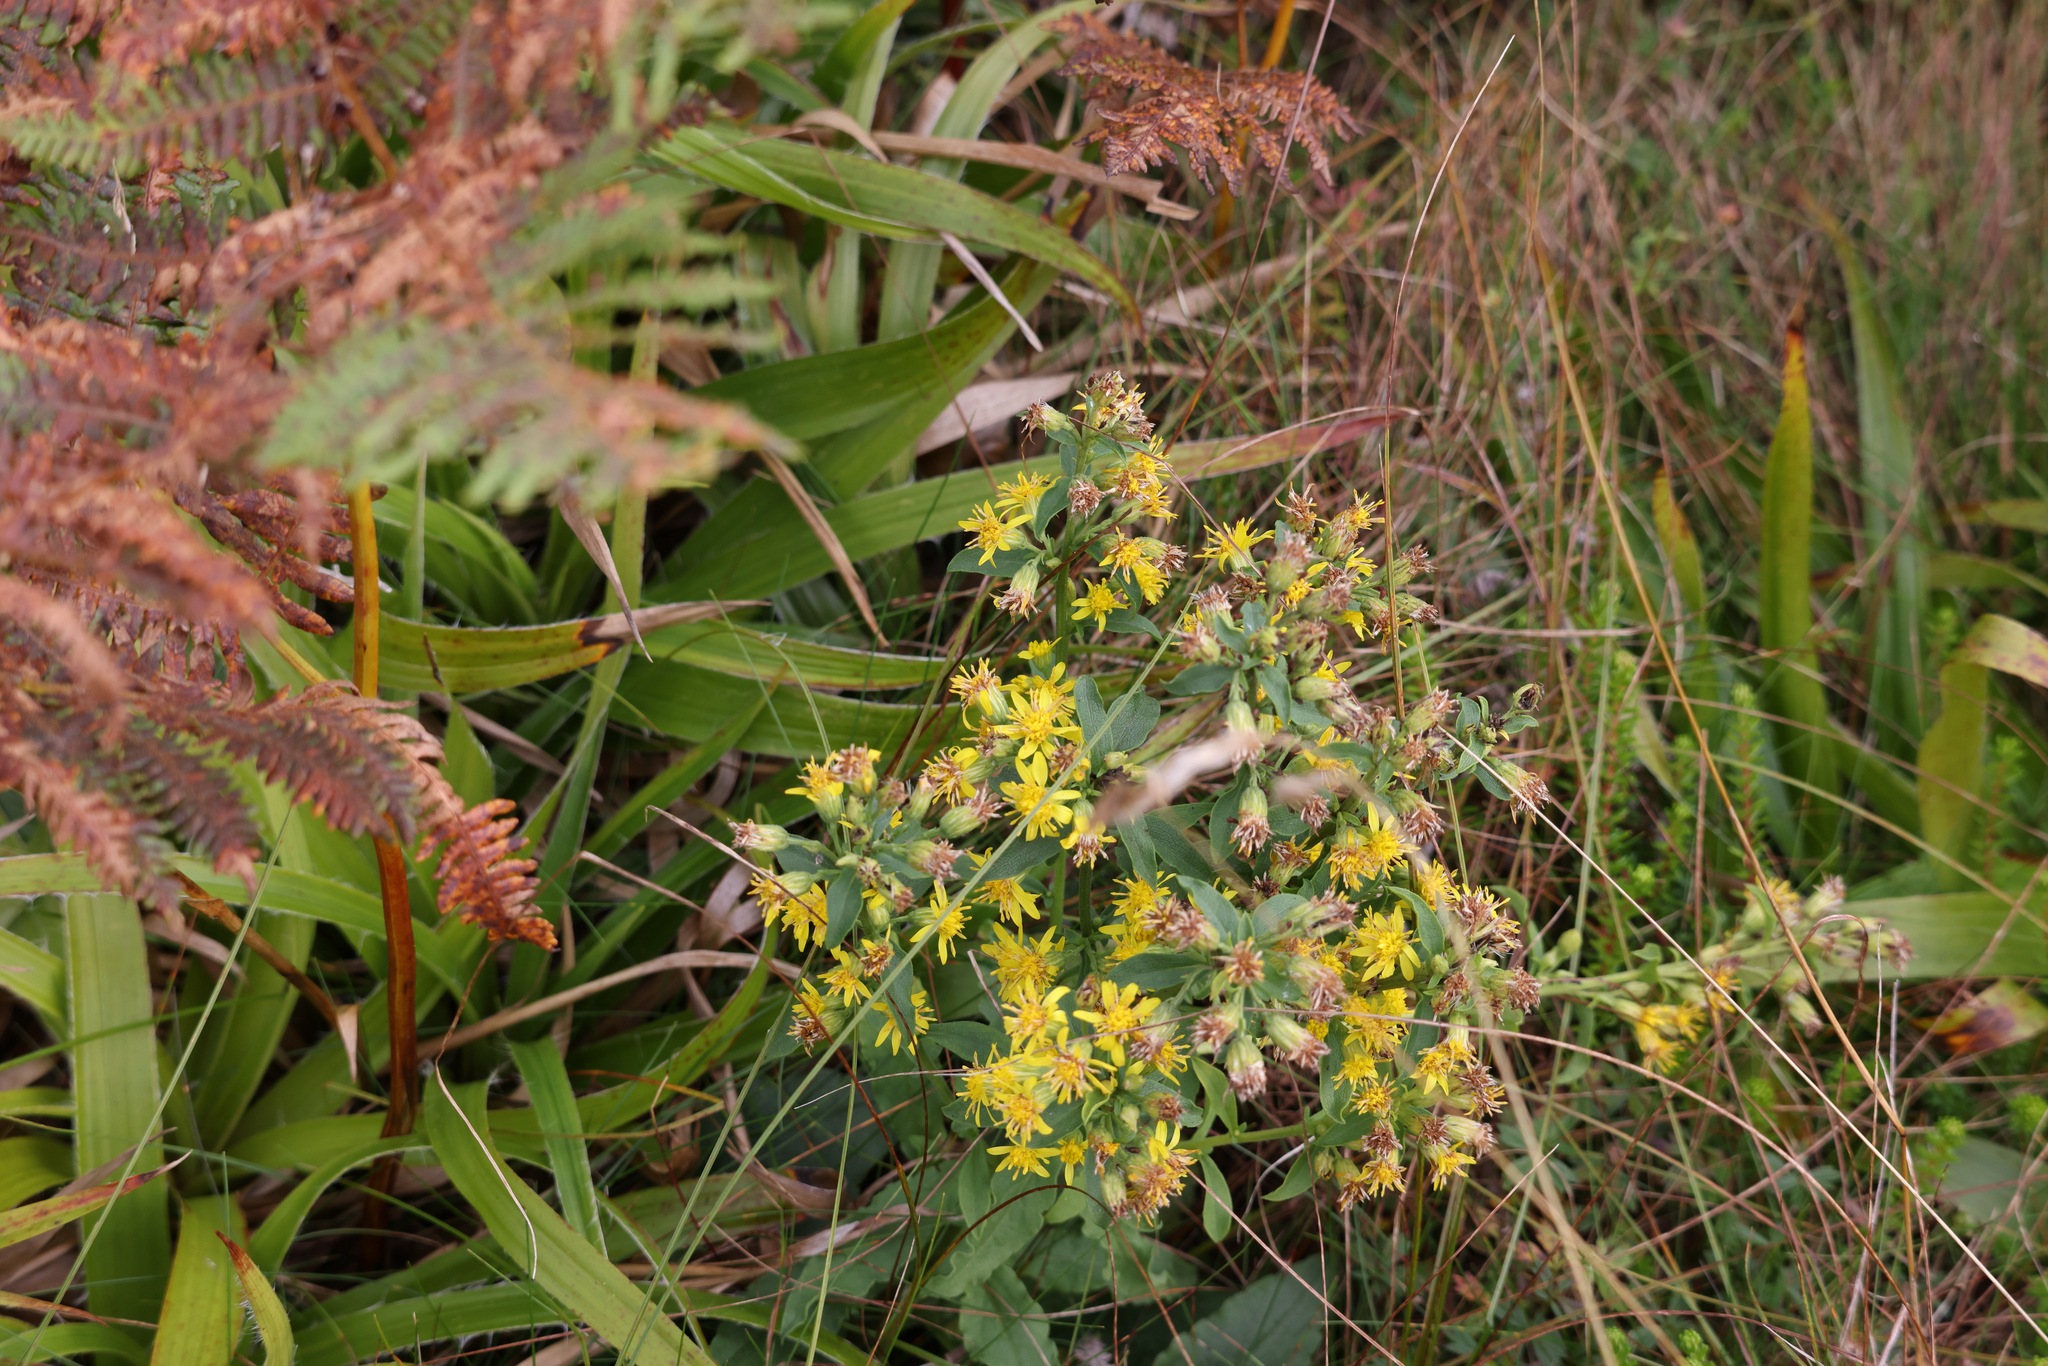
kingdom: Plantae
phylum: Tracheophyta
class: Magnoliopsida
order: Asterales
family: Asteraceae
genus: Solidago
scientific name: Solidago virgaurea
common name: Goldenrod
